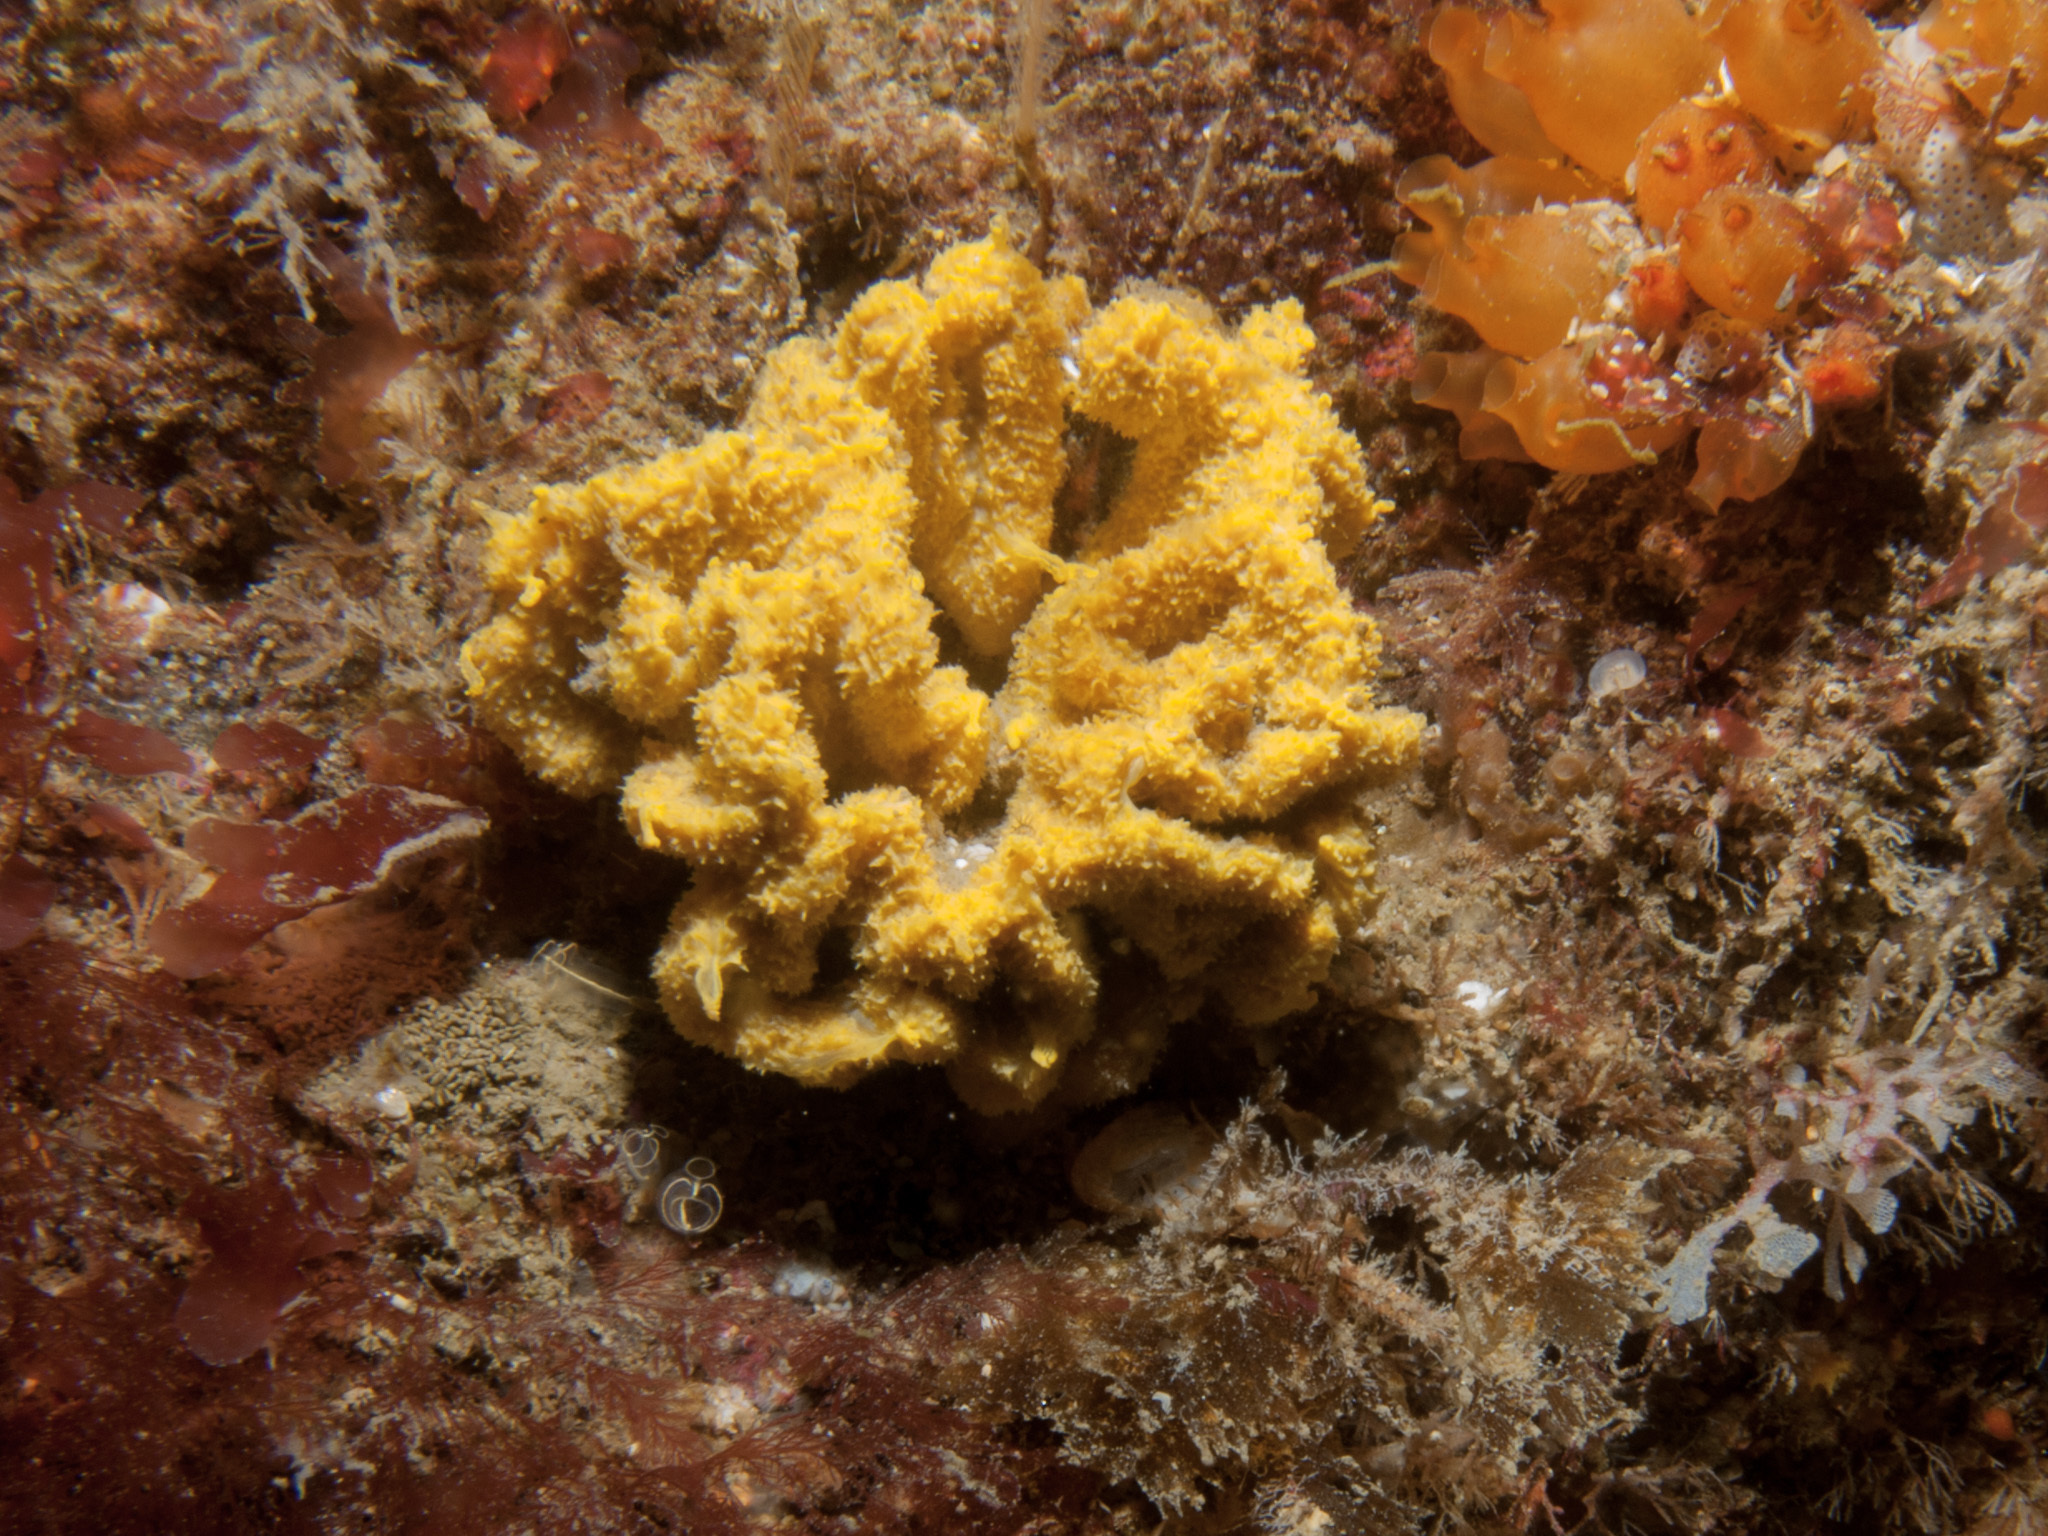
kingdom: Animalia
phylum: Porifera
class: Demospongiae
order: Axinellida
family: Axinellidae
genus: Axinella
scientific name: Axinella damicornis
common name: Crumpled duster sponge
